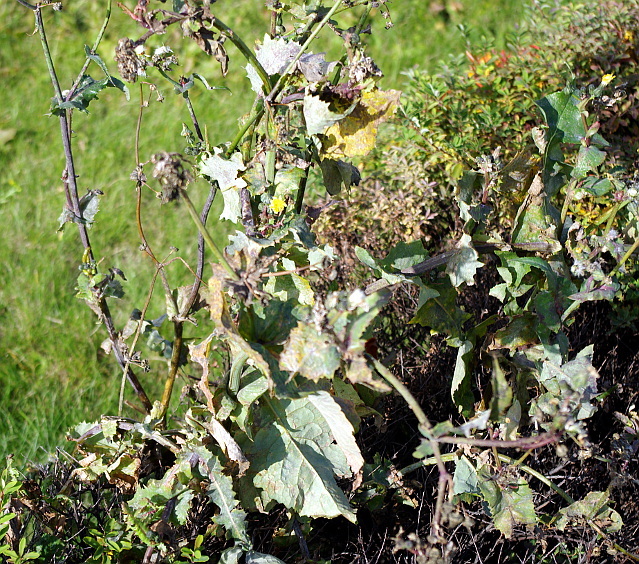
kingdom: Plantae
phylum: Tracheophyta
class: Magnoliopsida
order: Asterales
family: Asteraceae
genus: Sonchus
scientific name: Sonchus oleraceus
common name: Common sowthistle
